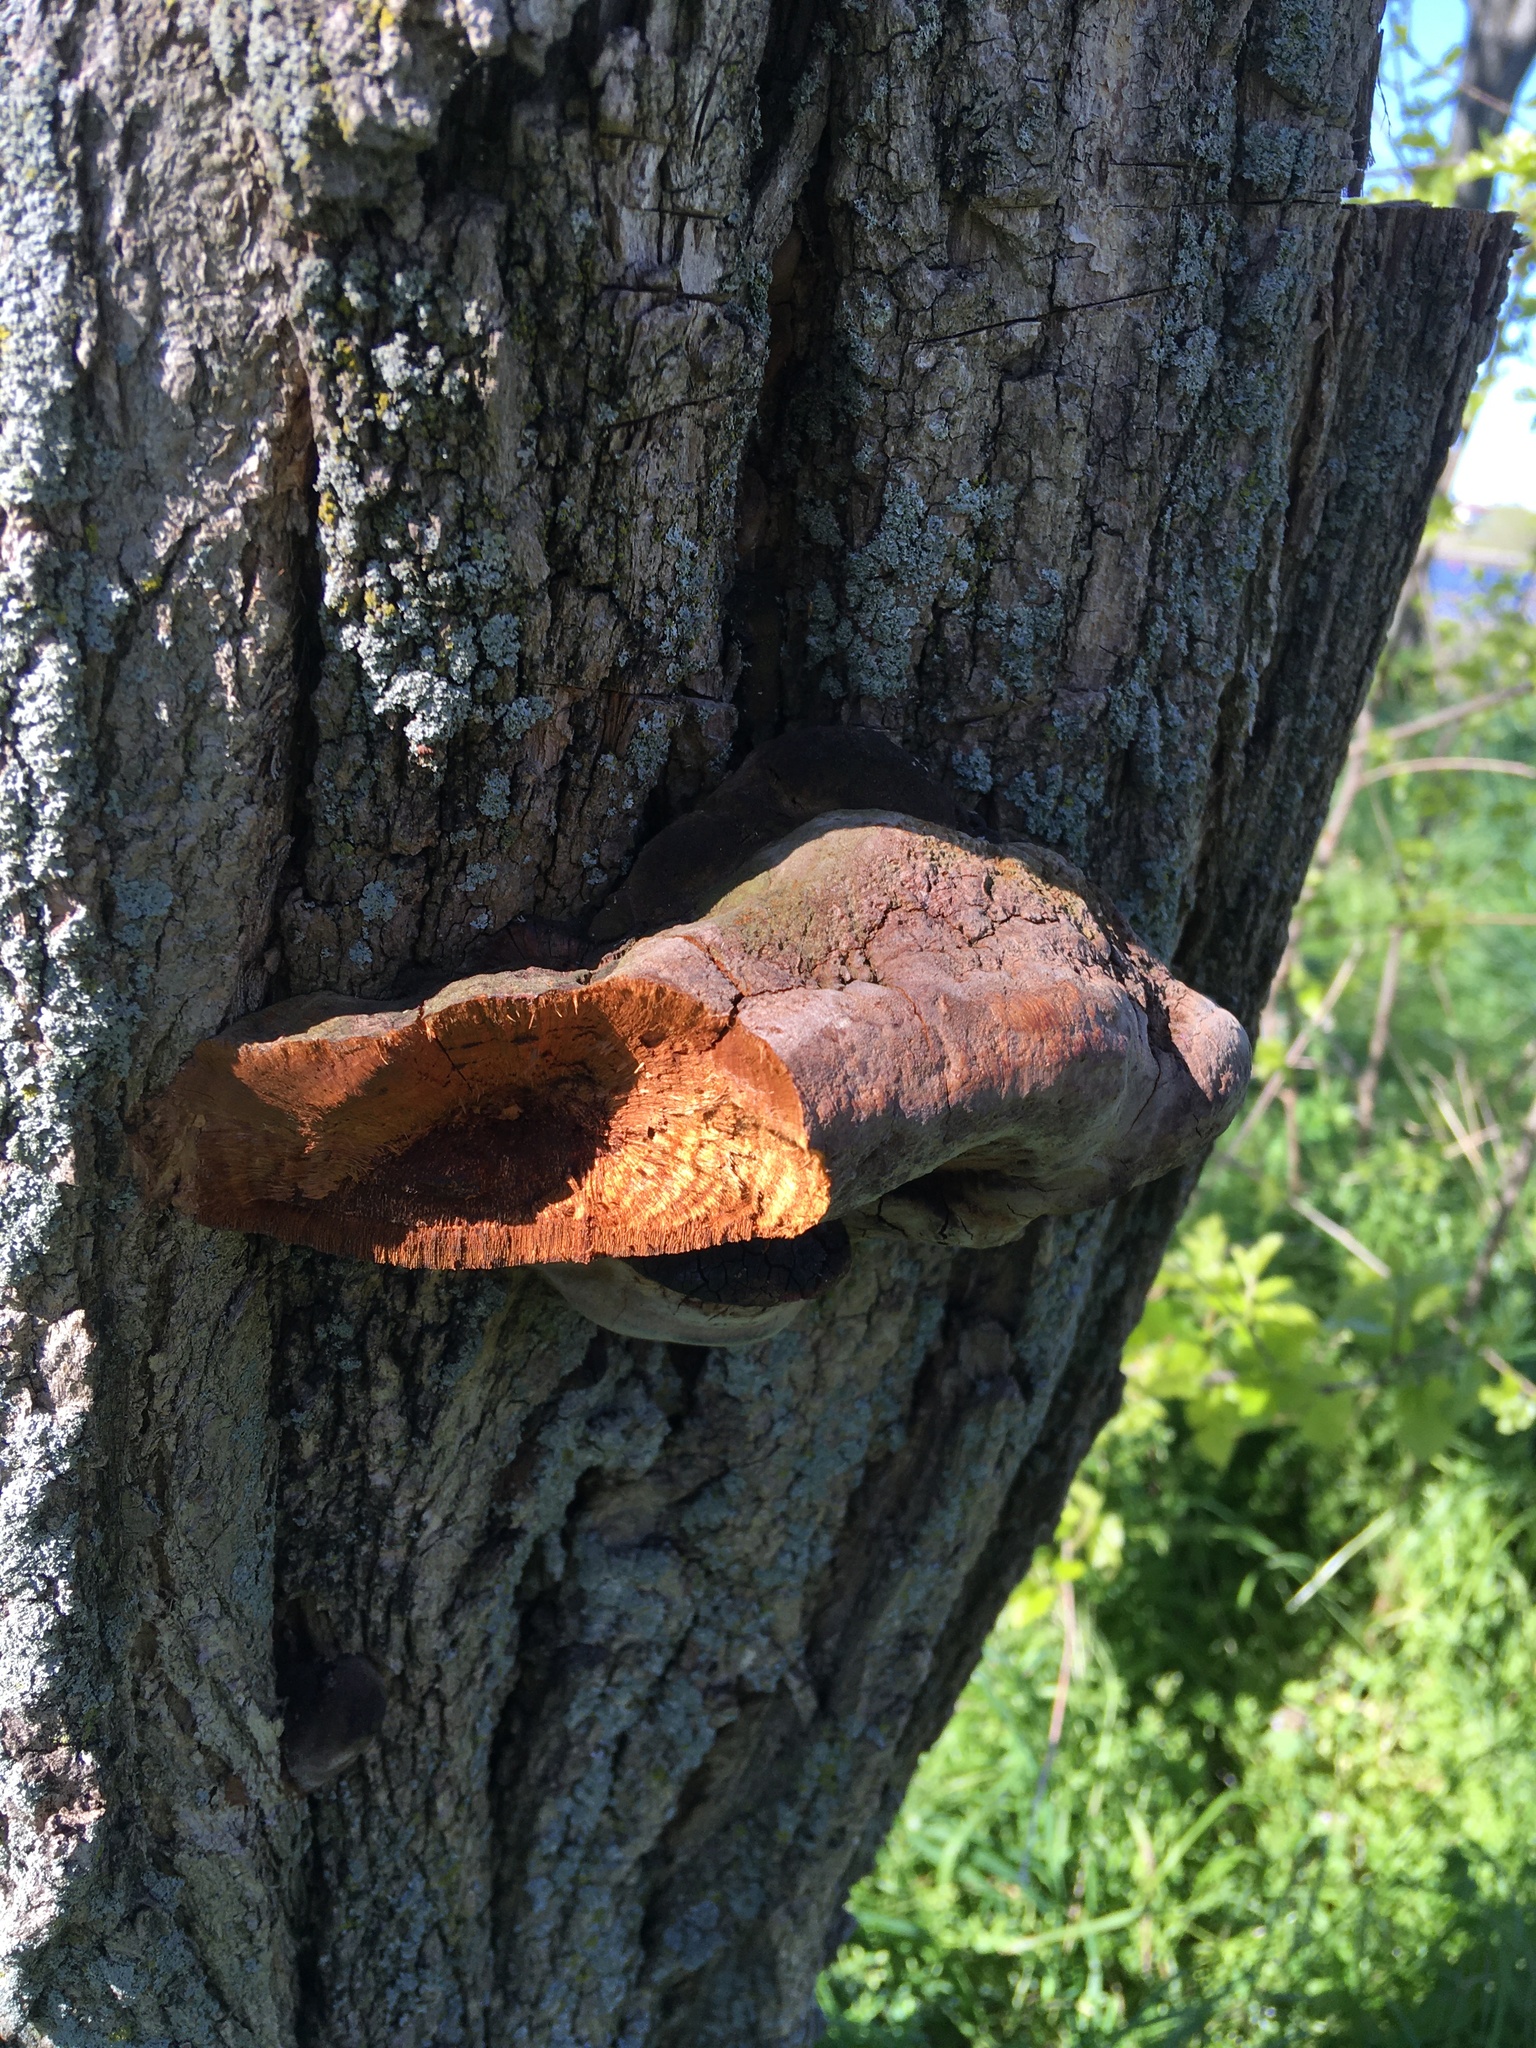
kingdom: Fungi
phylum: Basidiomycota
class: Agaricomycetes
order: Hymenochaetales
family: Hymenochaetaceae
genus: Phellinus
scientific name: Phellinus robiniae
